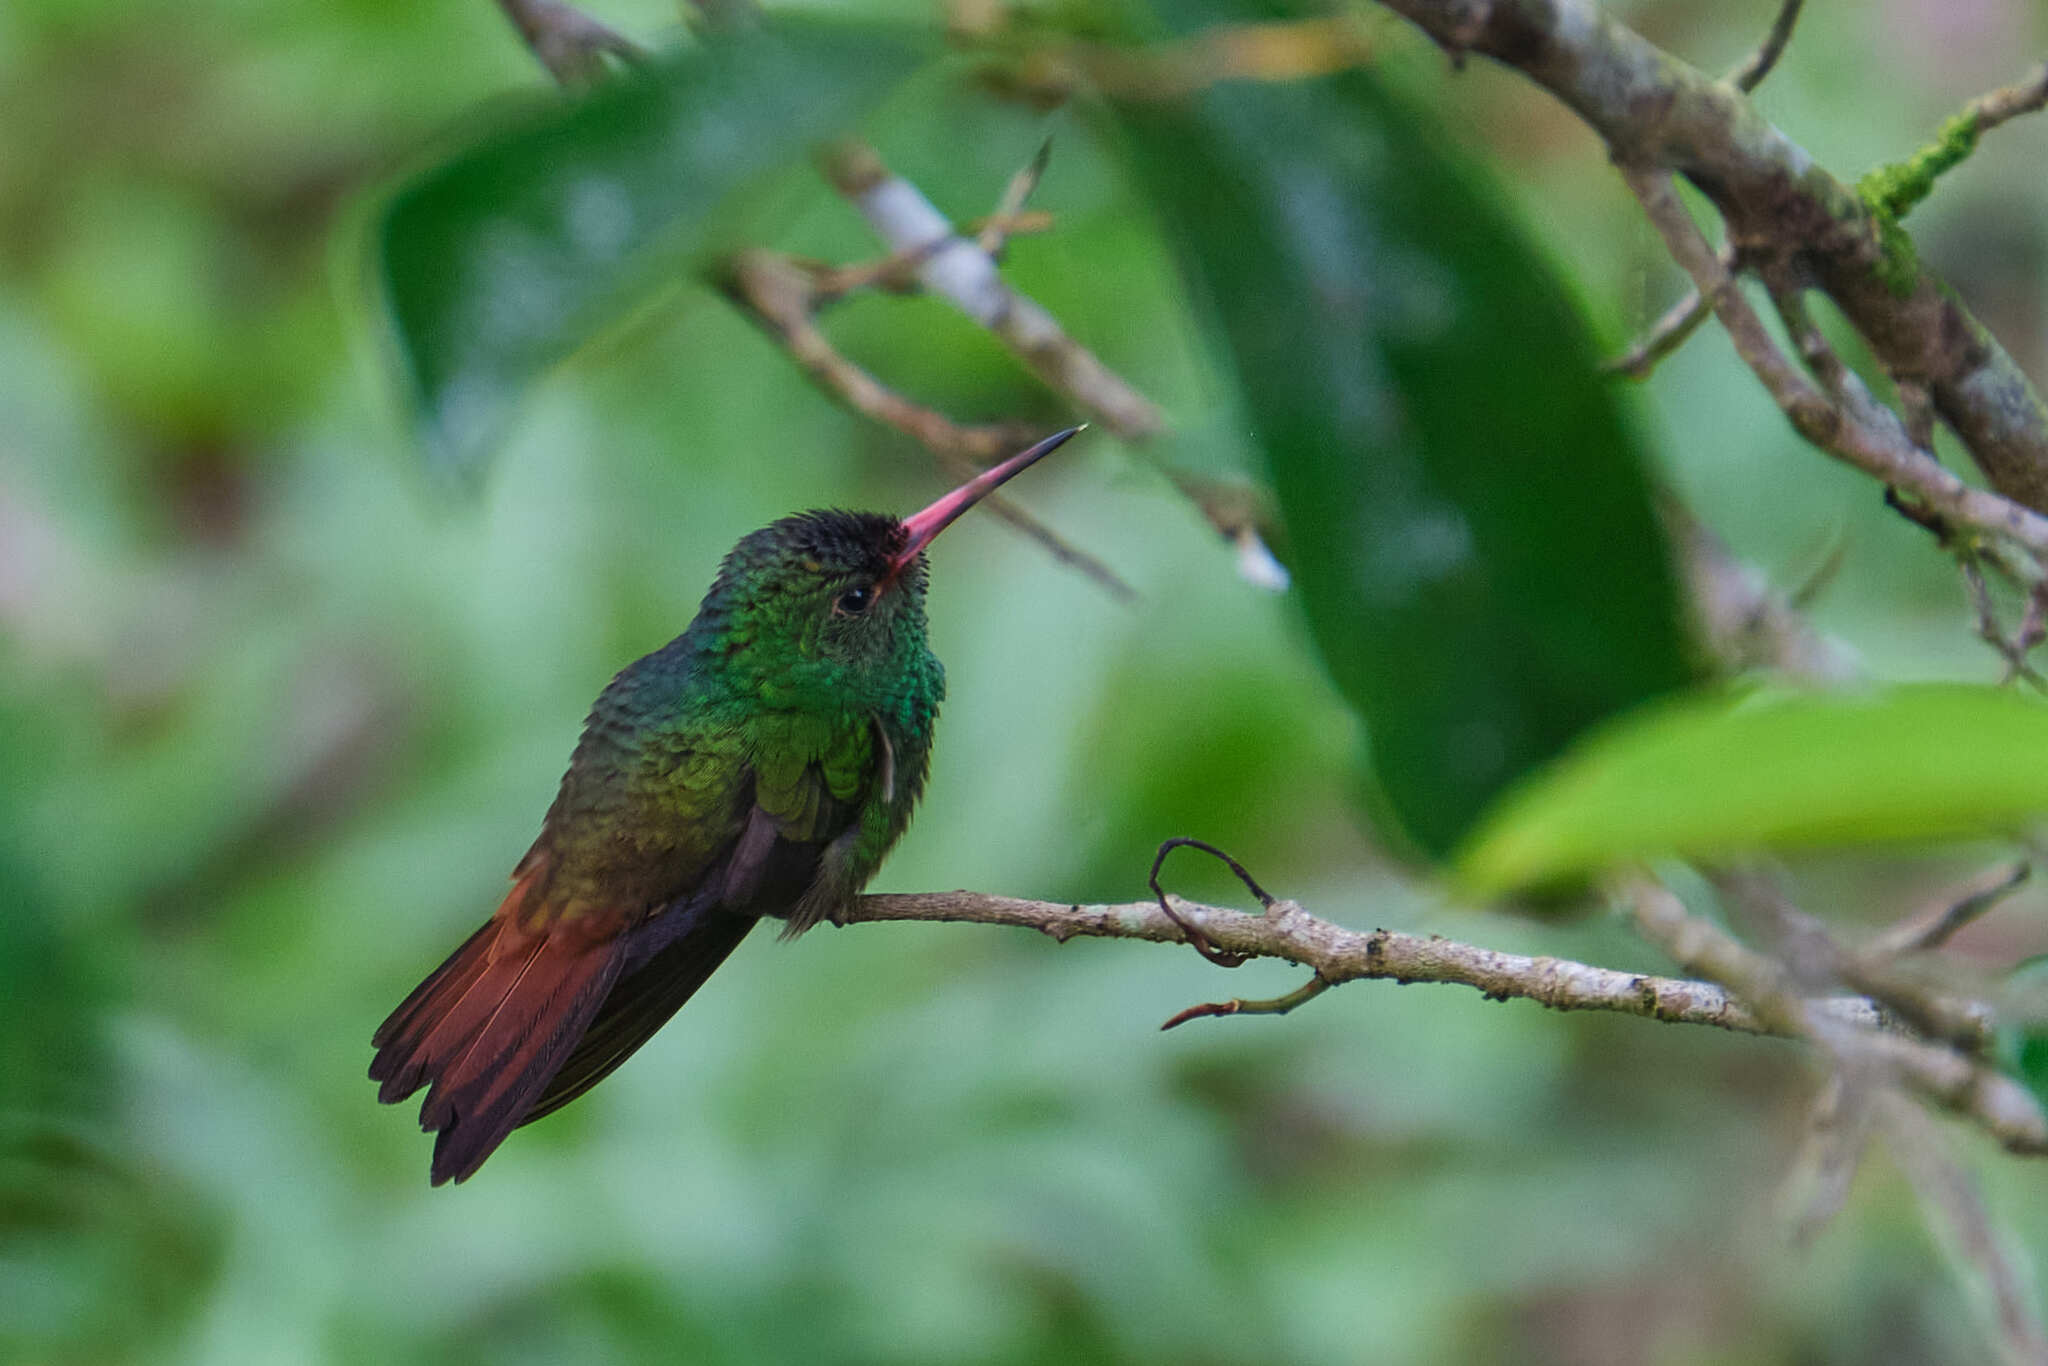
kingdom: Animalia
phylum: Chordata
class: Aves
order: Apodiformes
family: Trochilidae
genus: Amazilia
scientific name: Amazilia tzacatl
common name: Rufous-tailed hummingbird
